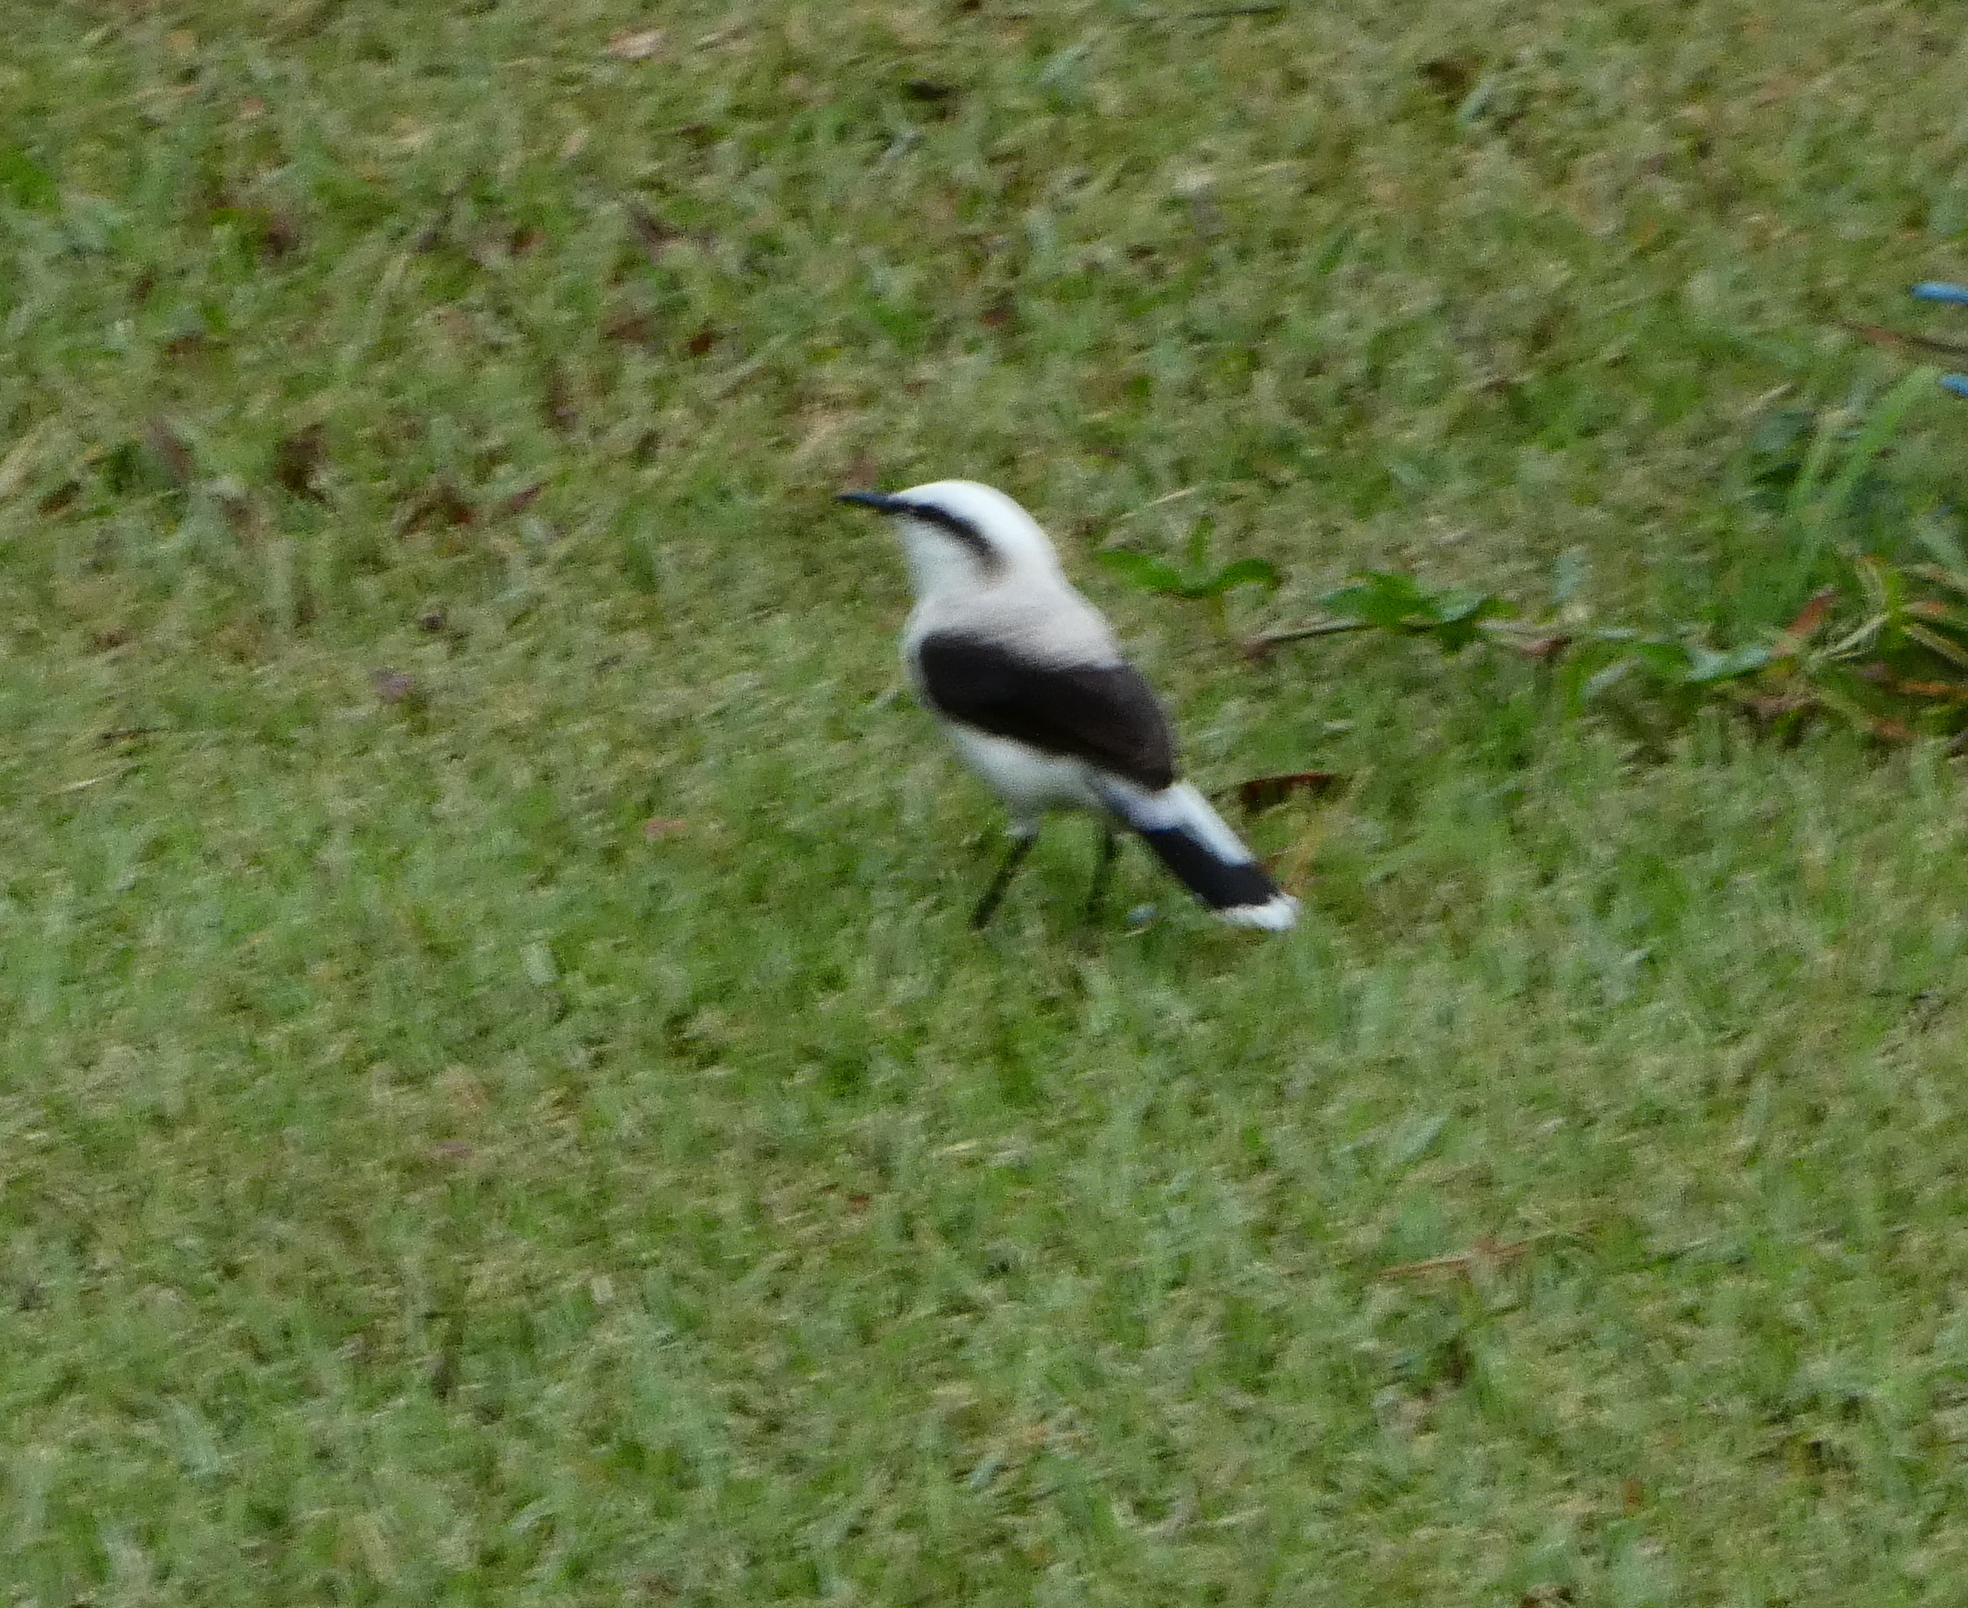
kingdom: Animalia
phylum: Chordata
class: Aves
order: Passeriformes
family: Tyrannidae
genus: Fluvicola
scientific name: Fluvicola nengeta
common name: Masked water tyrant
